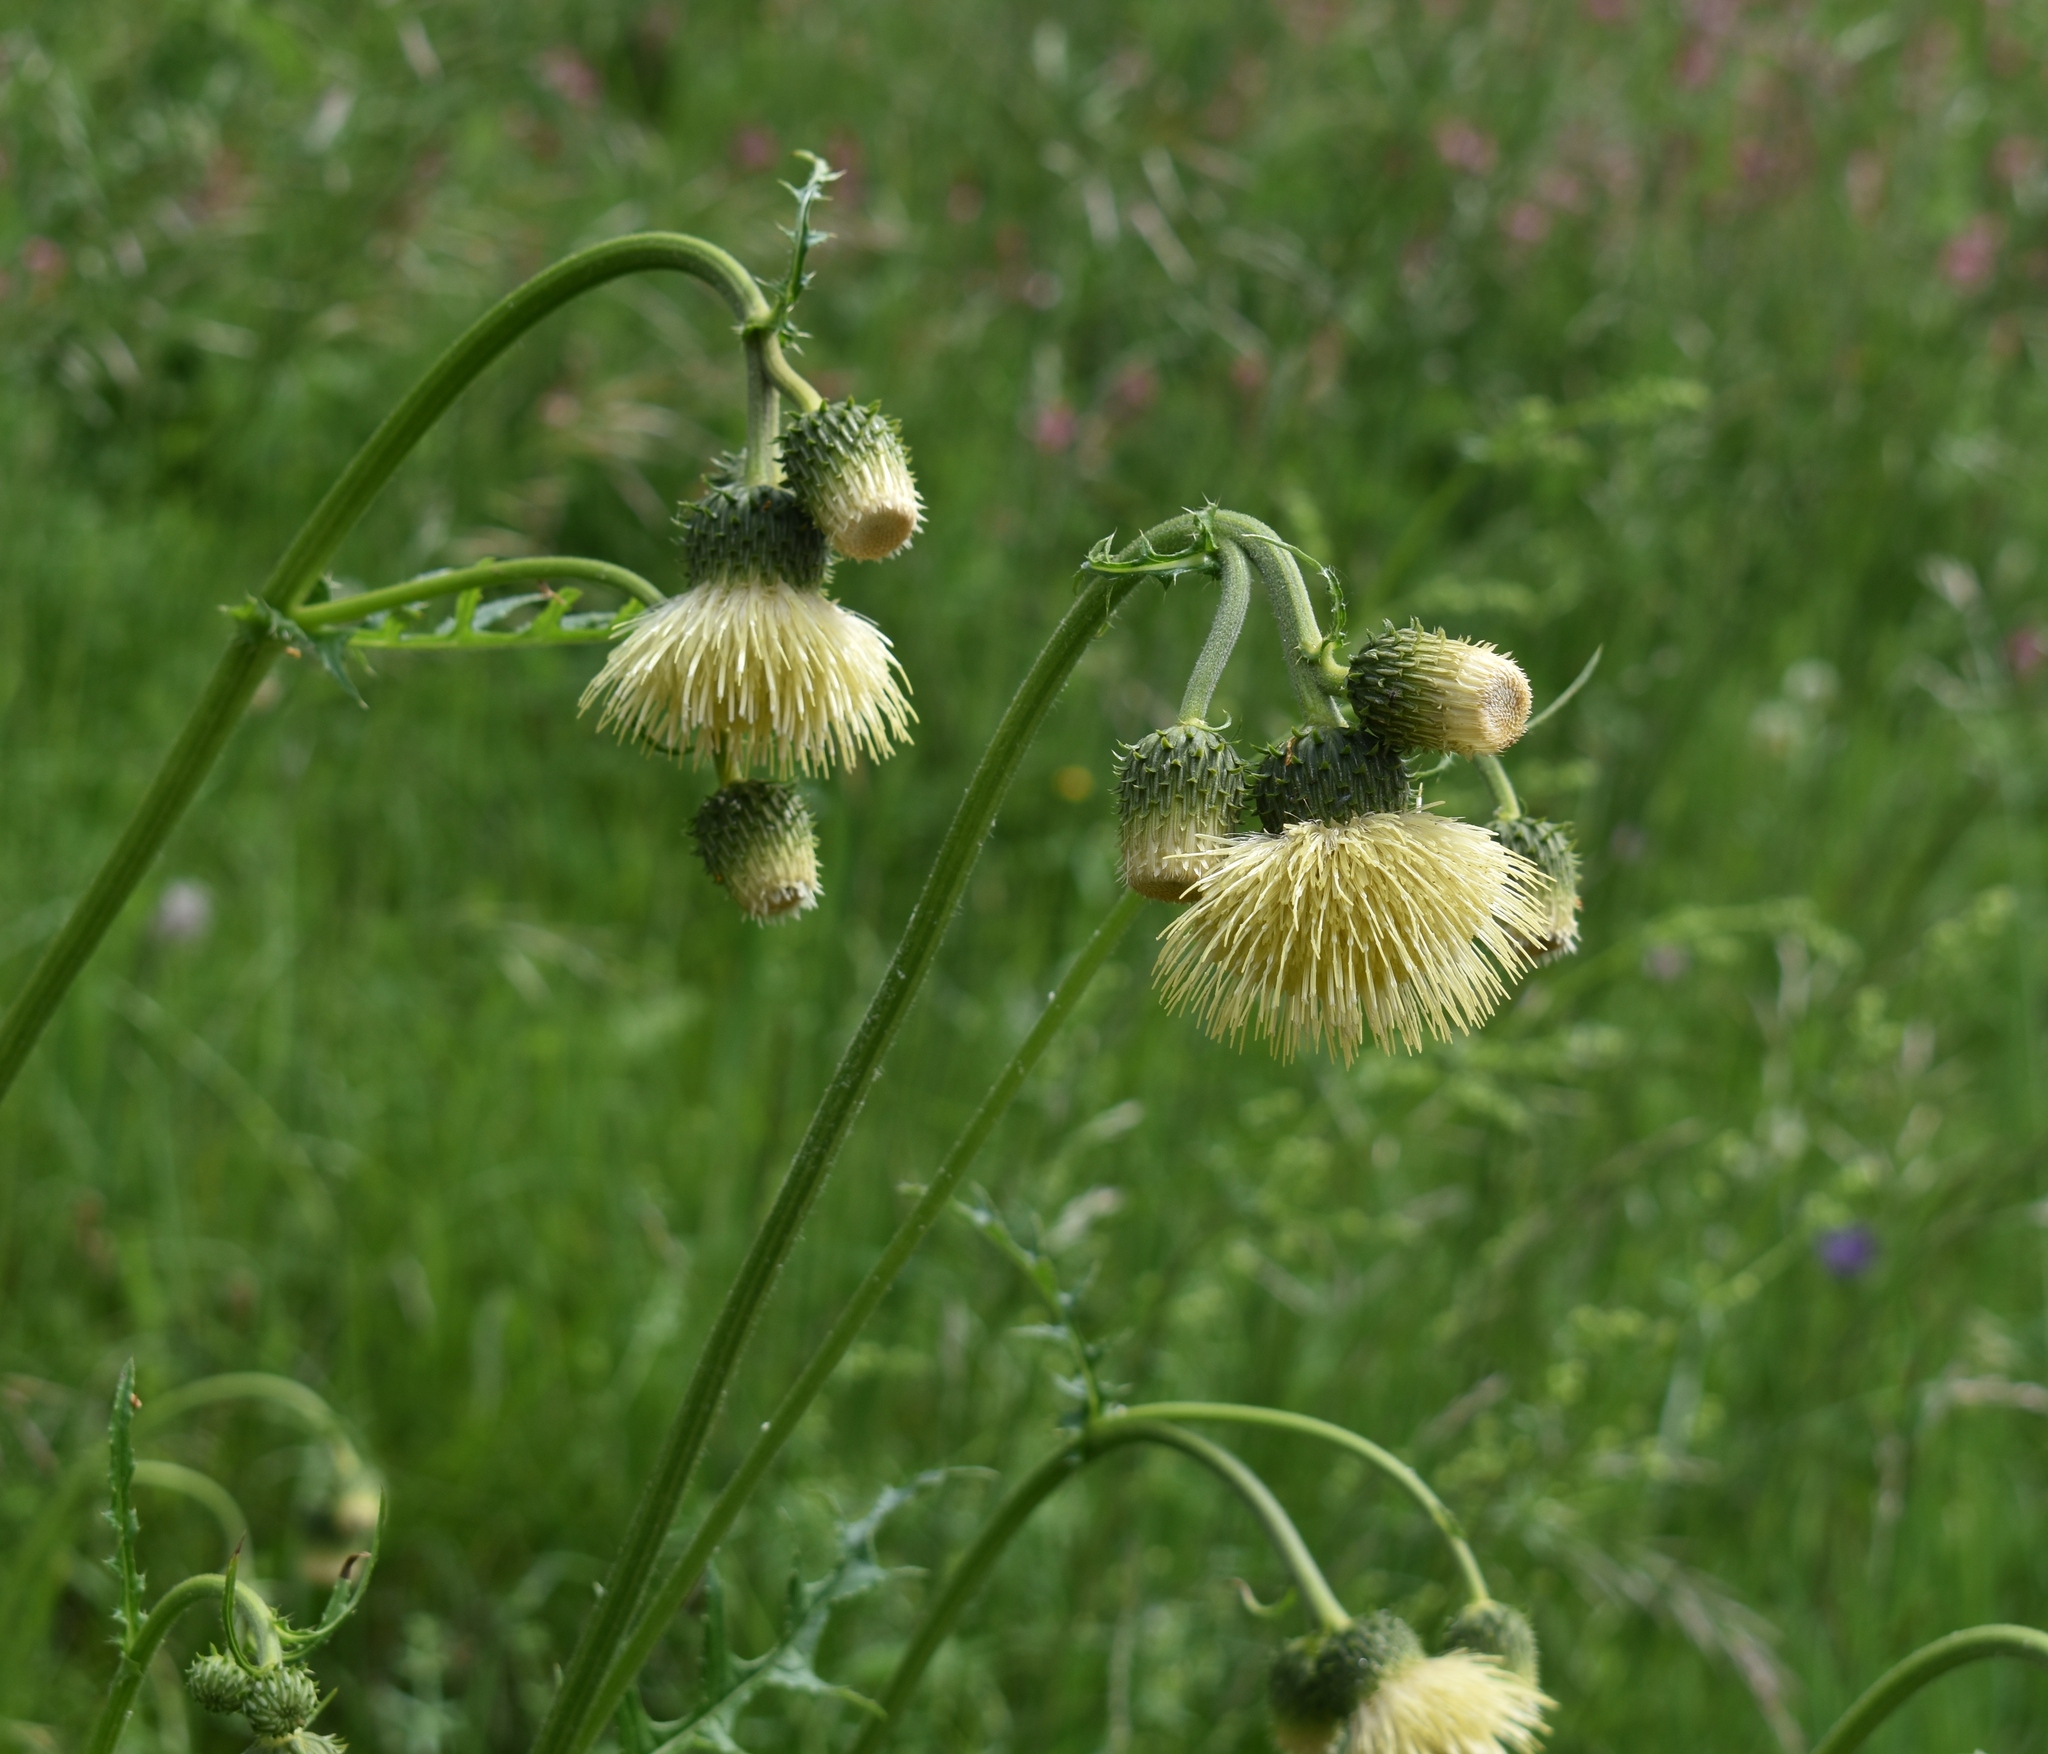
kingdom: Plantae
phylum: Tracheophyta
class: Magnoliopsida
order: Asterales
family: Asteraceae
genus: Cirsium
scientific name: Cirsium erisithales
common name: Yellow thistle
